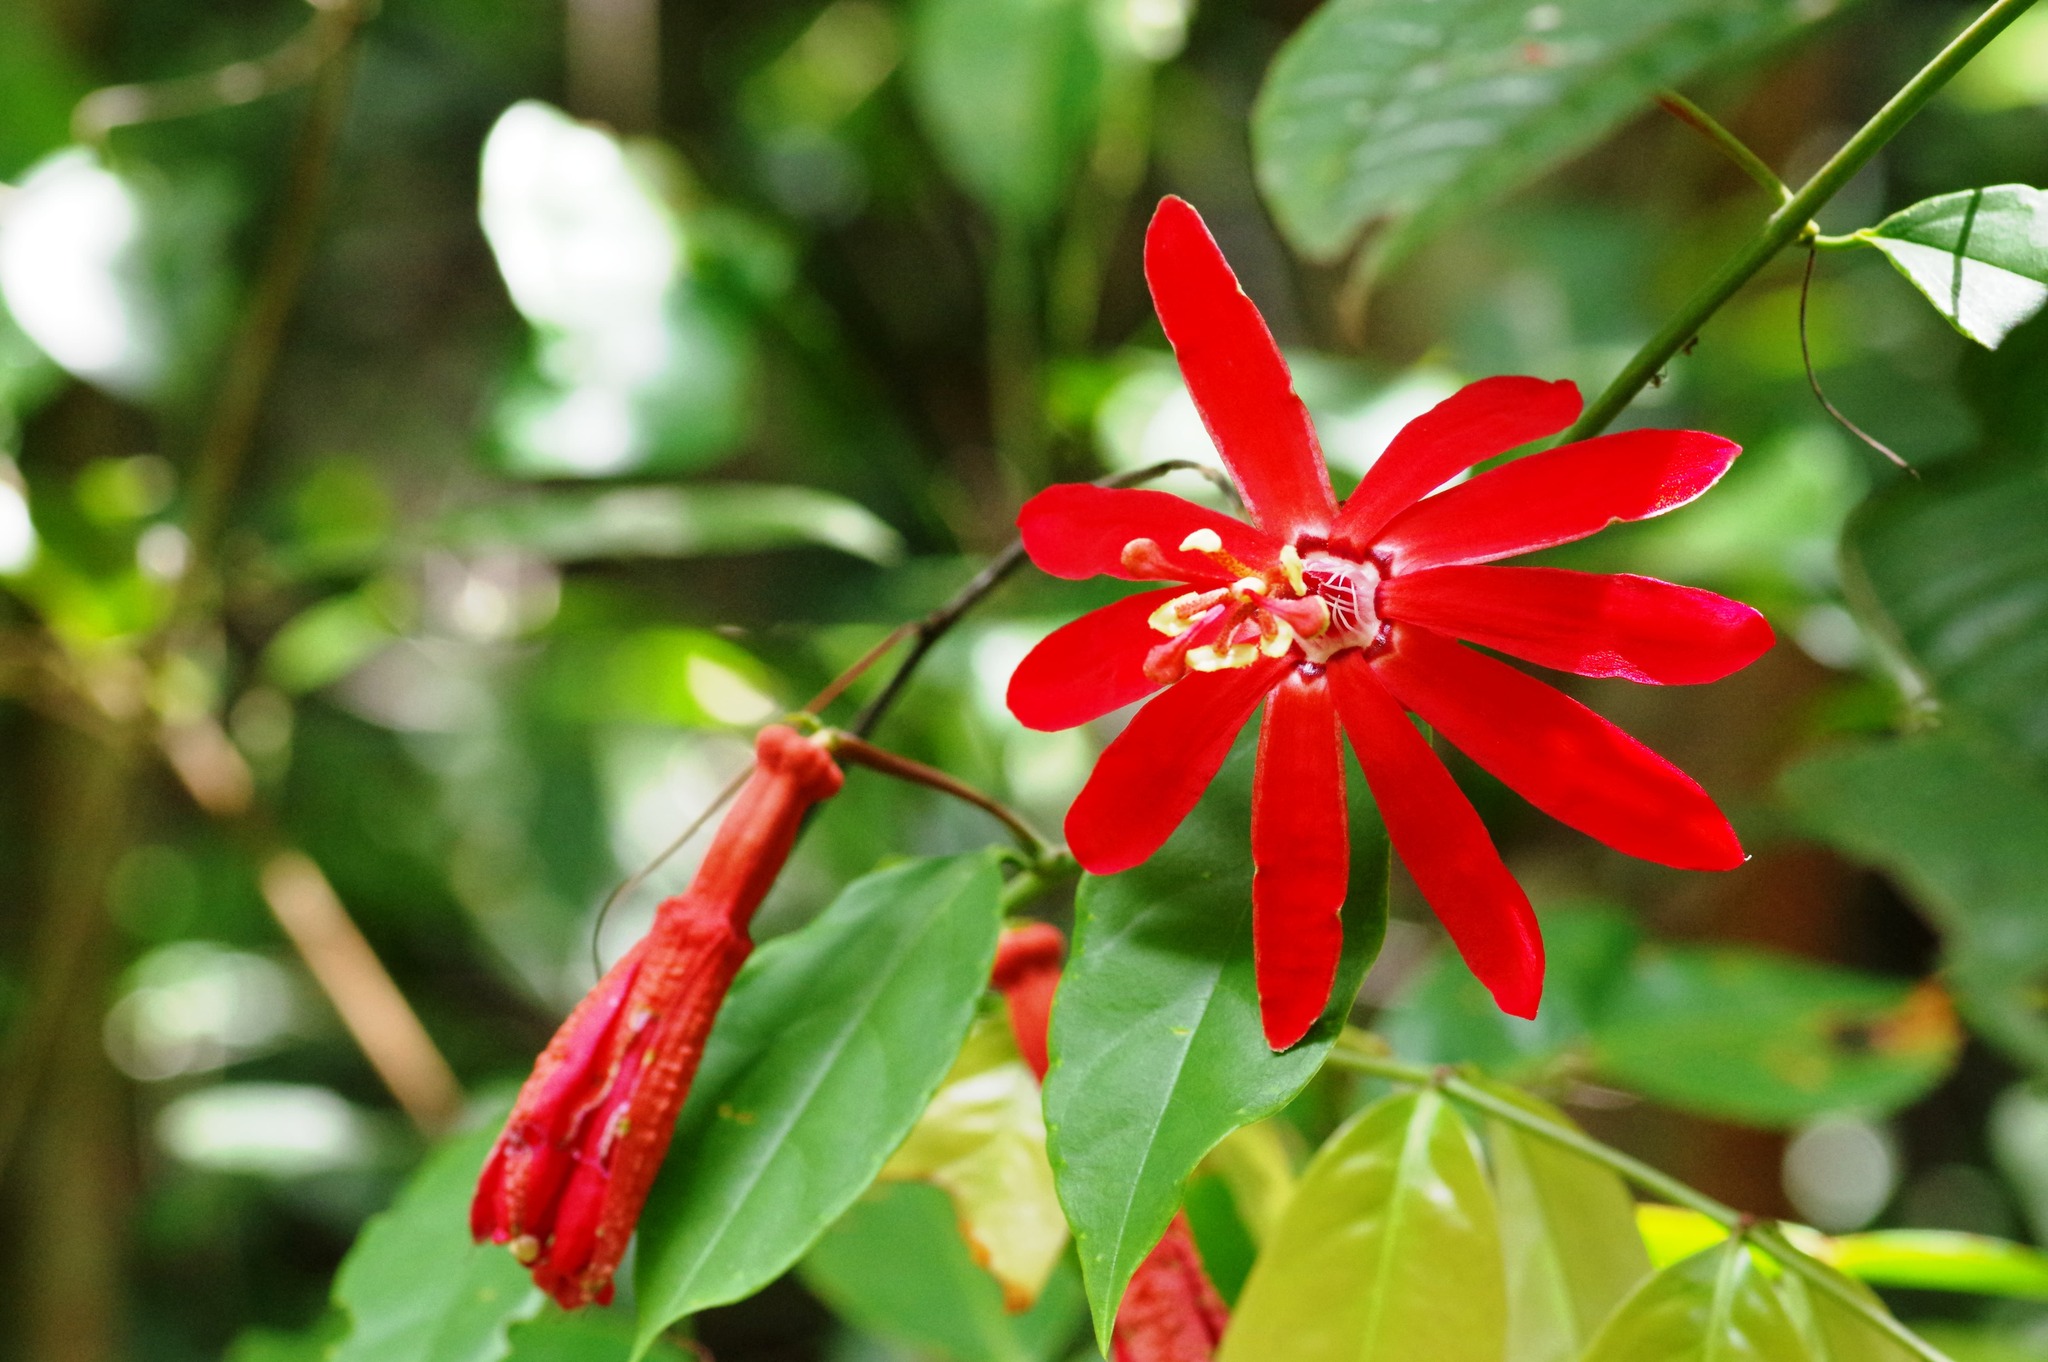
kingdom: Plantae
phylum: Tracheophyta
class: Magnoliopsida
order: Malpighiales
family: Passifloraceae
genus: Passiflora
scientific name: Passiflora glandulosa
